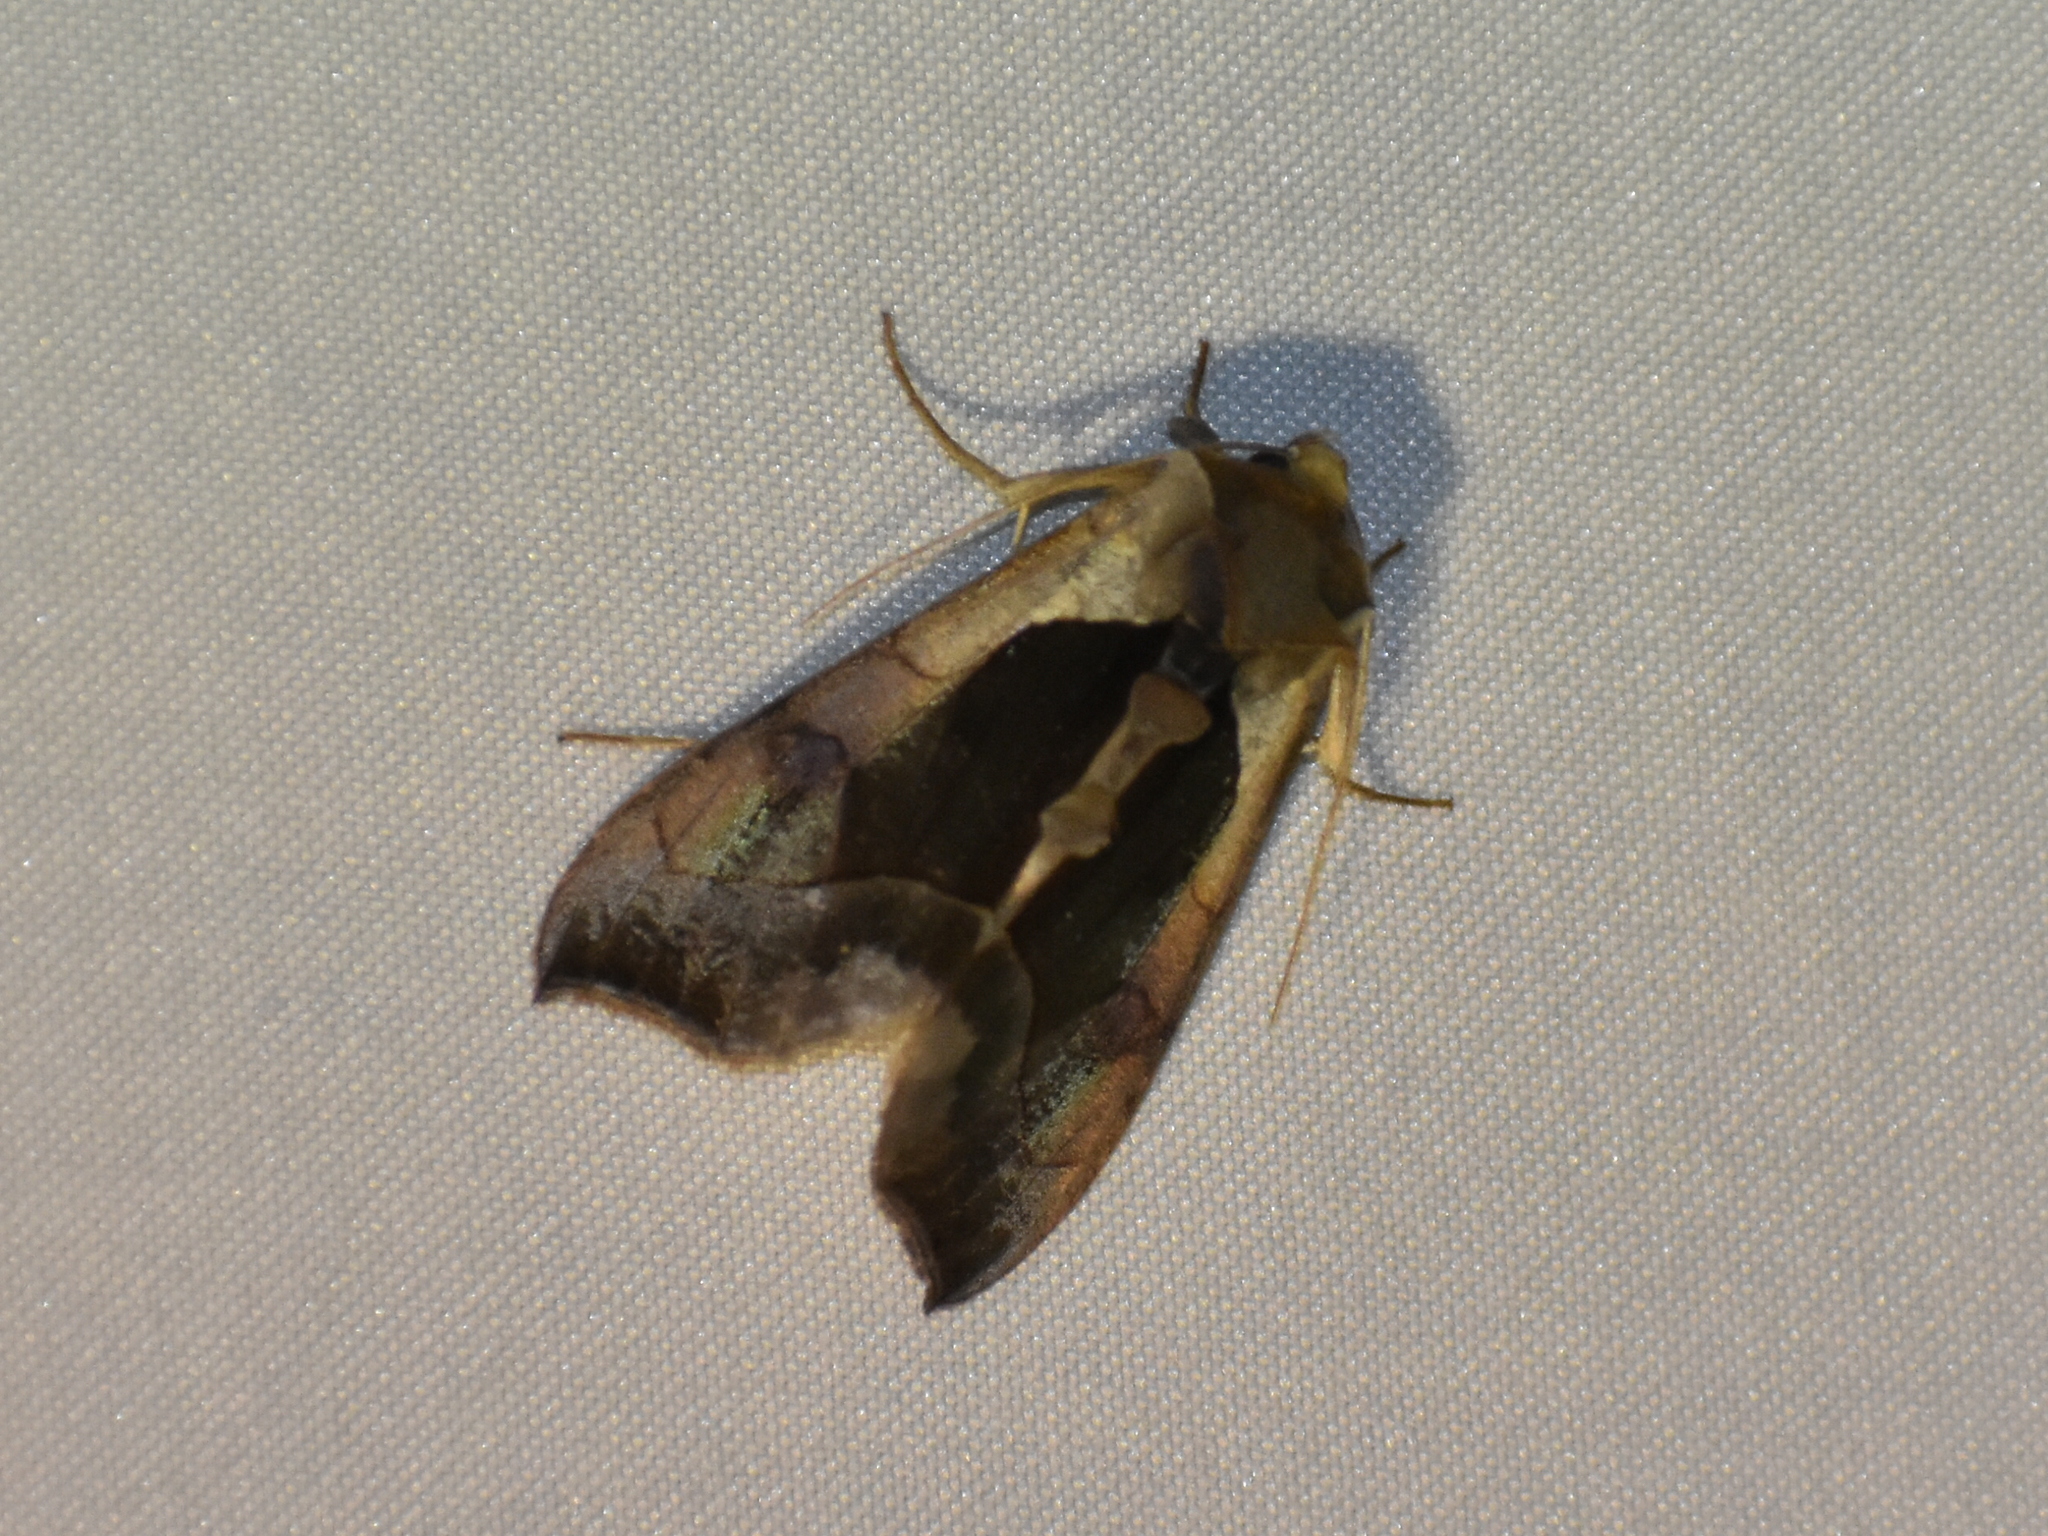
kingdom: Animalia
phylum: Arthropoda
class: Insecta
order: Lepidoptera
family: Noctuidae
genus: Diachrysia
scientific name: Diachrysia balluca
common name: Green-patched looper moth
